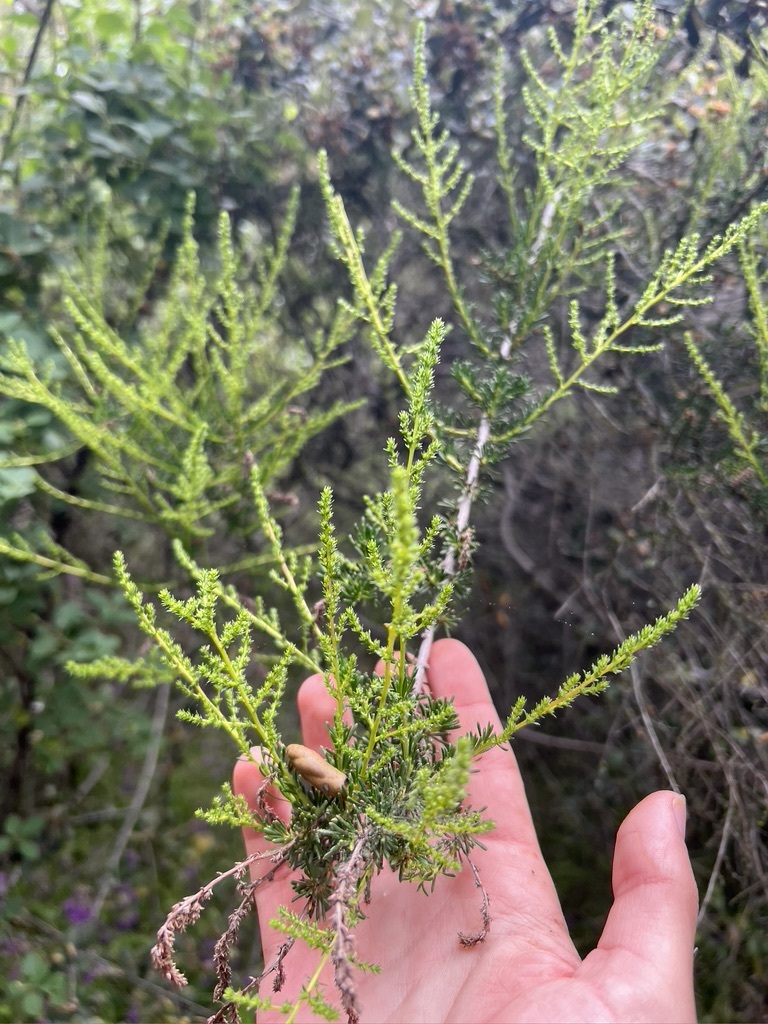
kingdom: Plantae
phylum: Tracheophyta
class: Magnoliopsida
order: Rosales
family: Rosaceae
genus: Adenostoma
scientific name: Adenostoma fasciculatum
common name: Chamise
